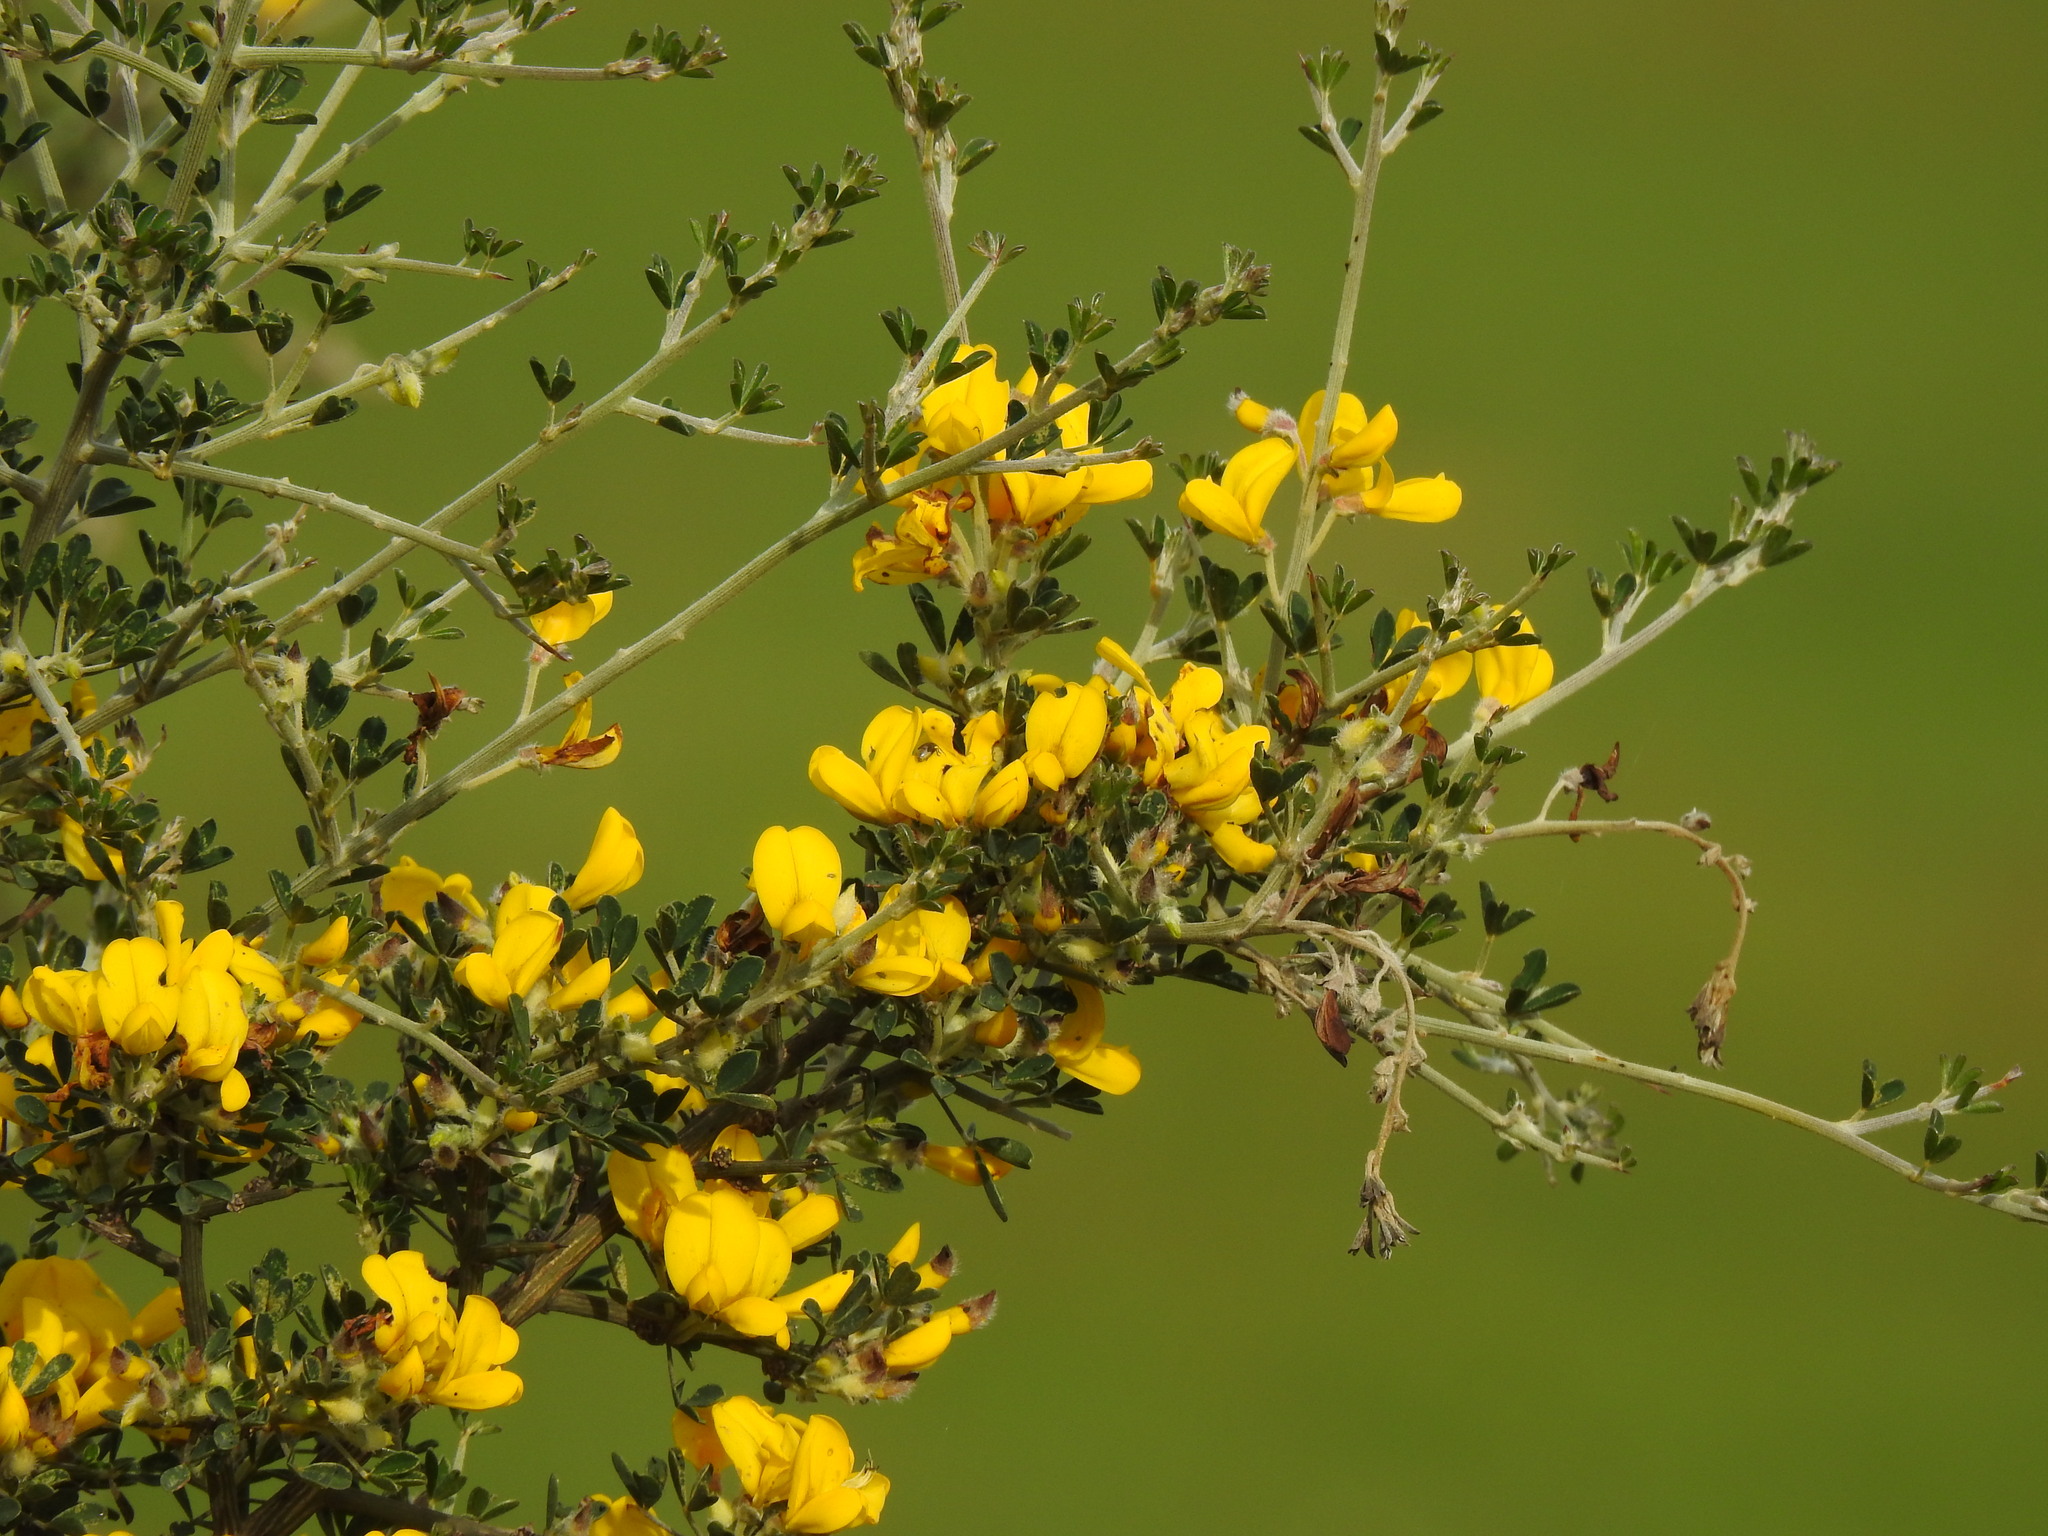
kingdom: Plantae
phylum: Tracheophyta
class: Magnoliopsida
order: Fabales
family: Fabaceae
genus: Calicotome
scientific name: Calicotome villosa
